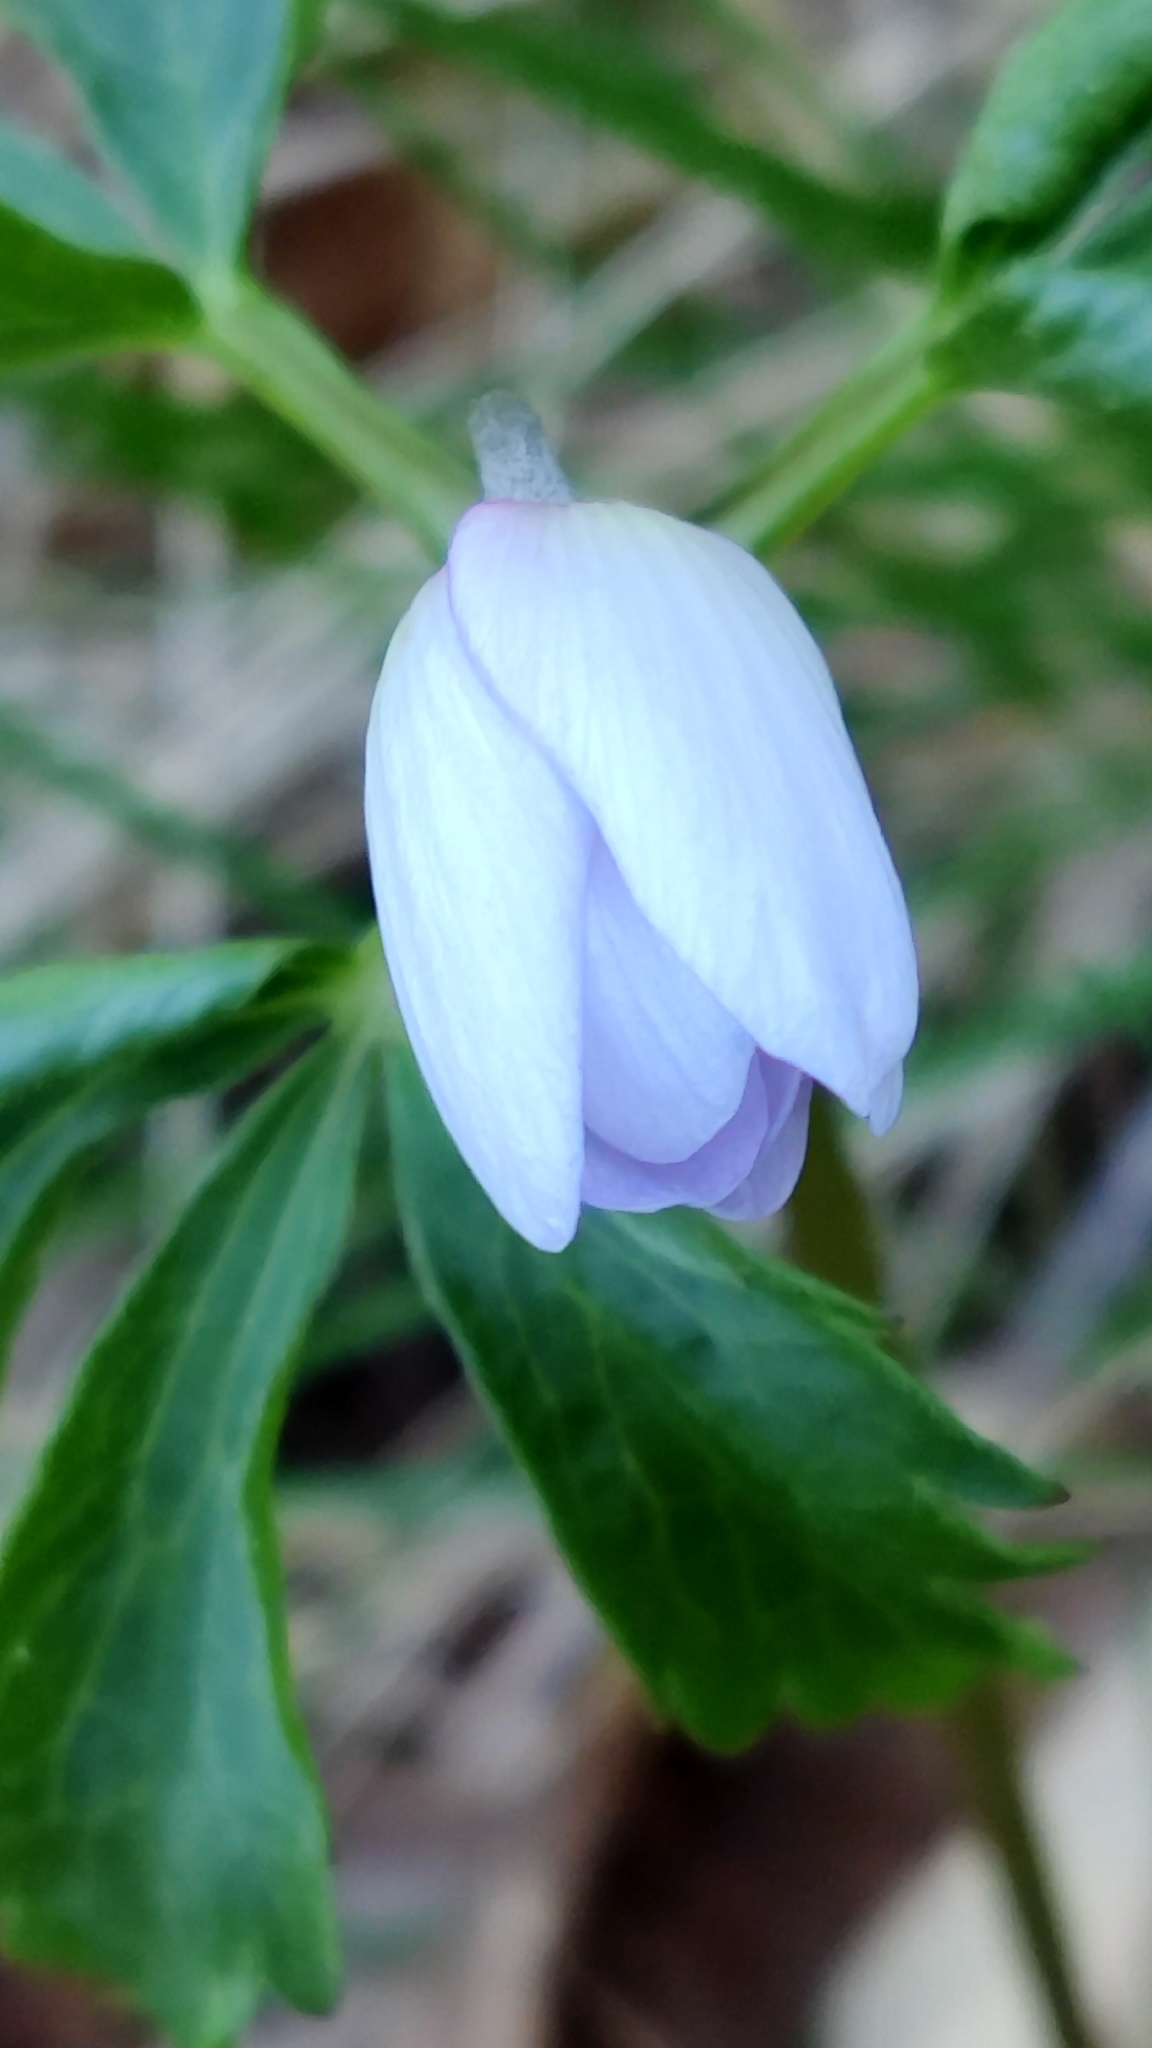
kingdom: Plantae
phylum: Tracheophyta
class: Magnoliopsida
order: Ranunculales
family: Ranunculaceae
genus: Anemone
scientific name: Anemone trifolia
